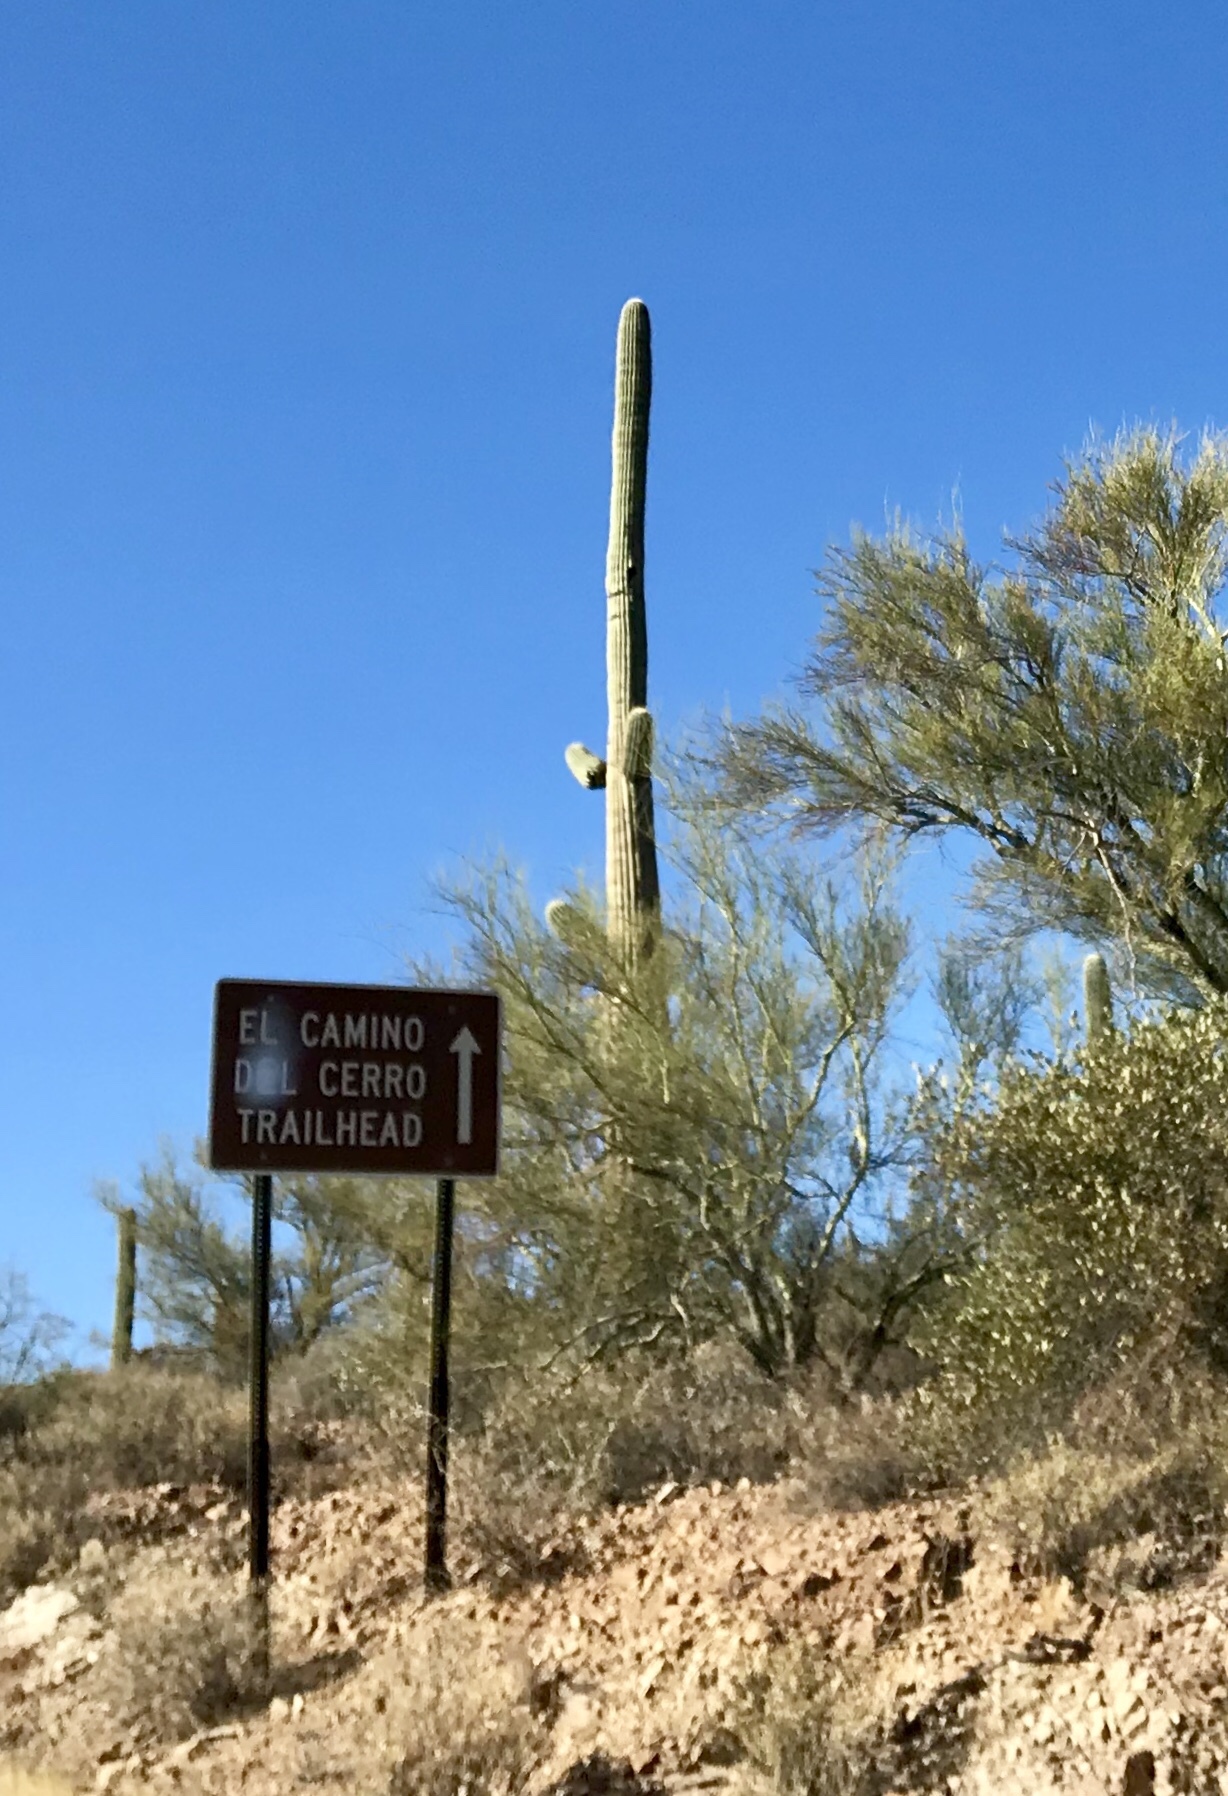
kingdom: Plantae
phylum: Tracheophyta
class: Magnoliopsida
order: Caryophyllales
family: Cactaceae
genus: Carnegiea
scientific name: Carnegiea gigantea
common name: Saguaro
